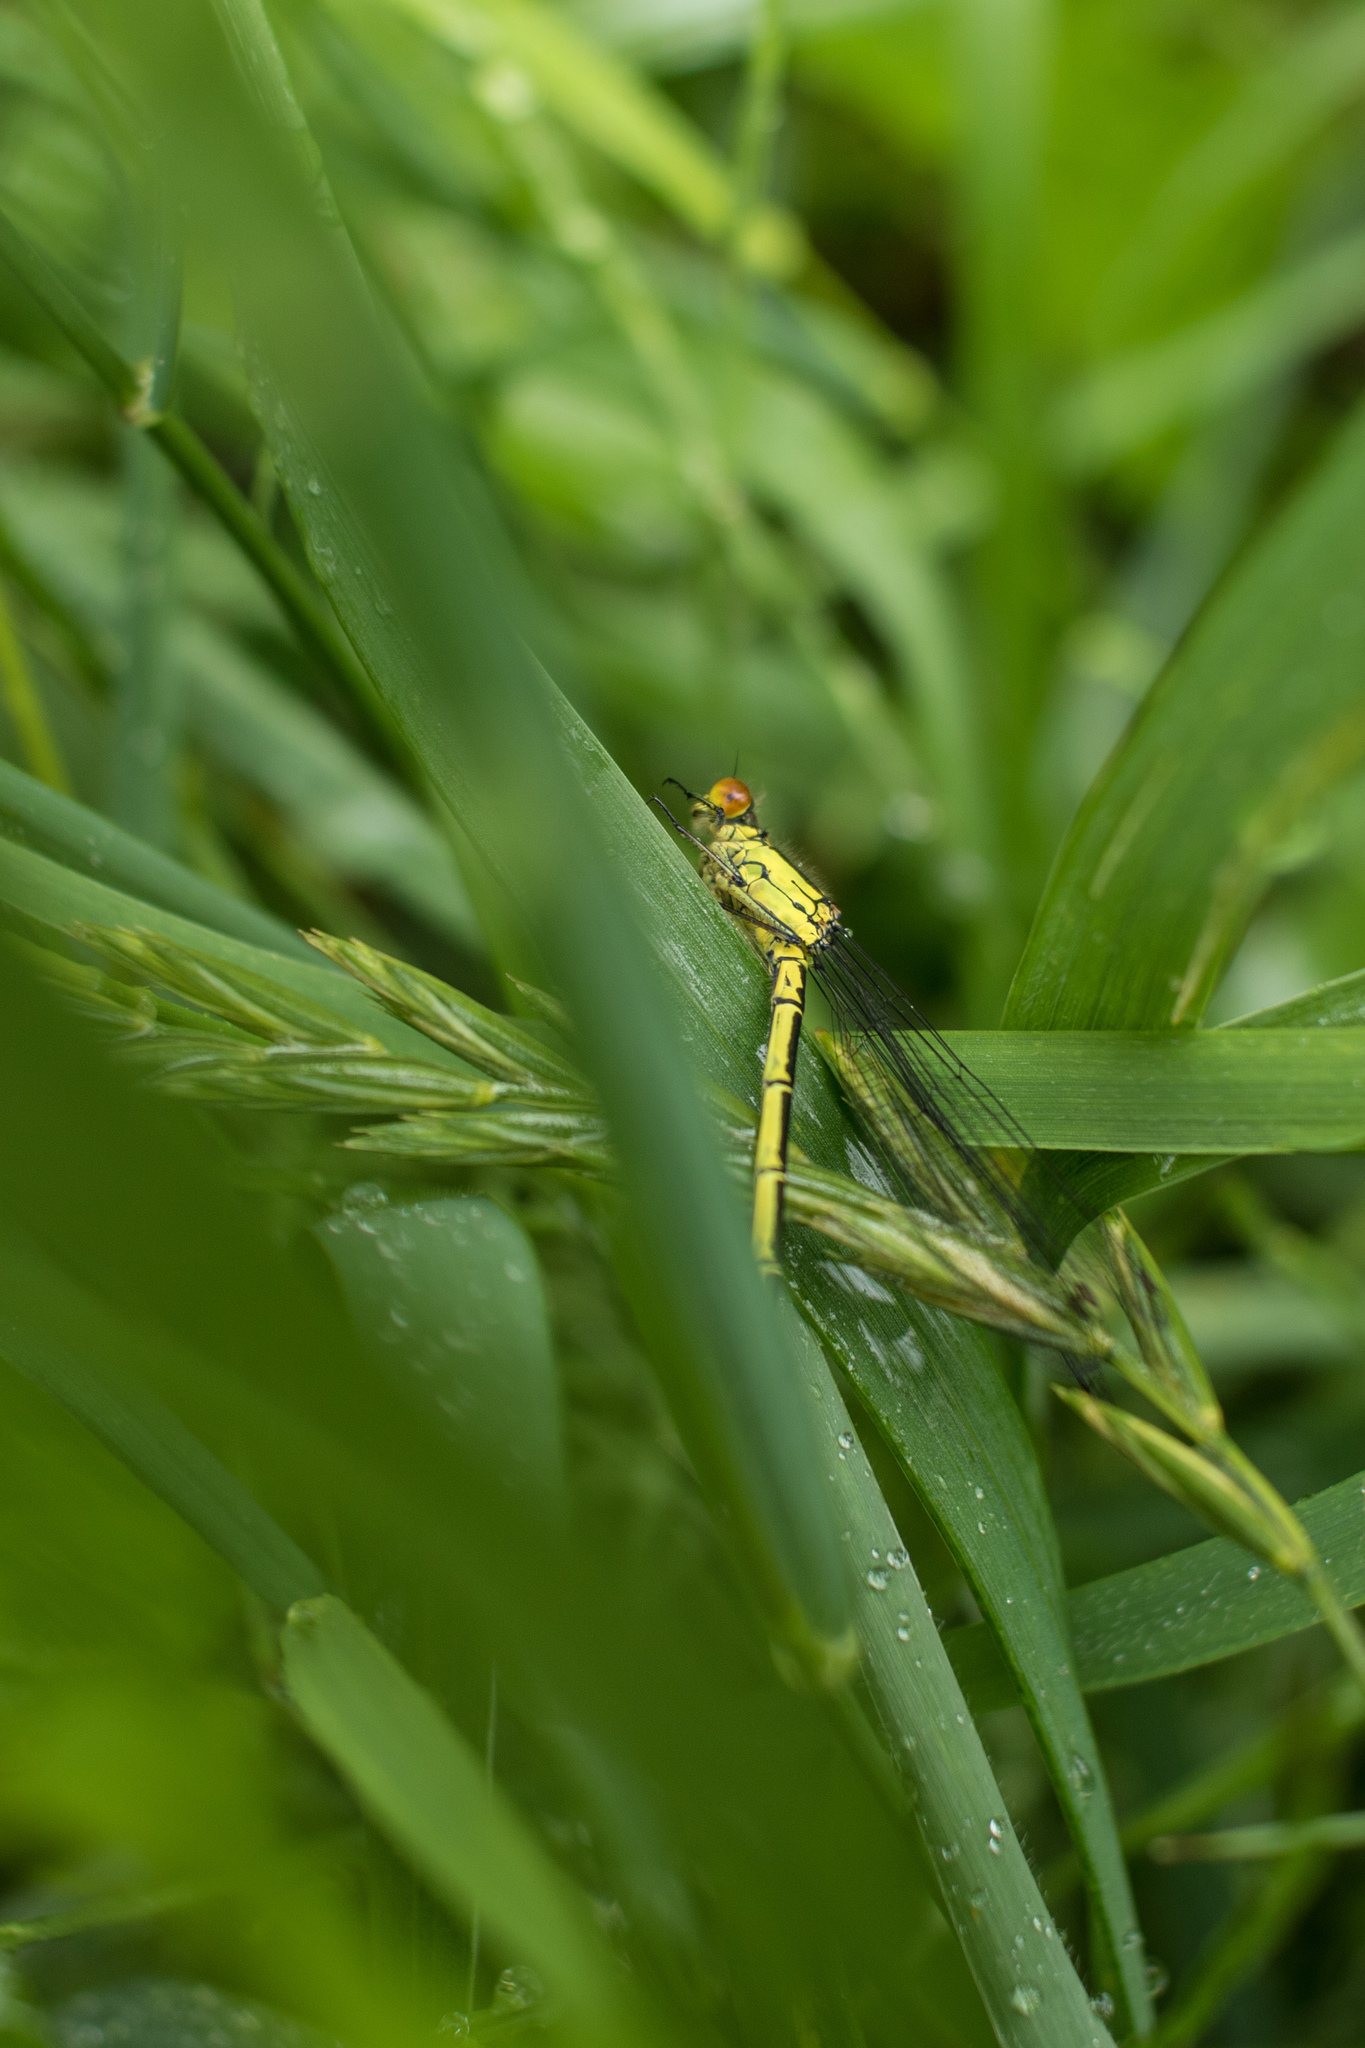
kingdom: Animalia
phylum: Arthropoda
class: Insecta
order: Odonata
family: Coenagrionidae
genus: Erythromma
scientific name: Erythromma najas
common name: Red-eyed damselfly
